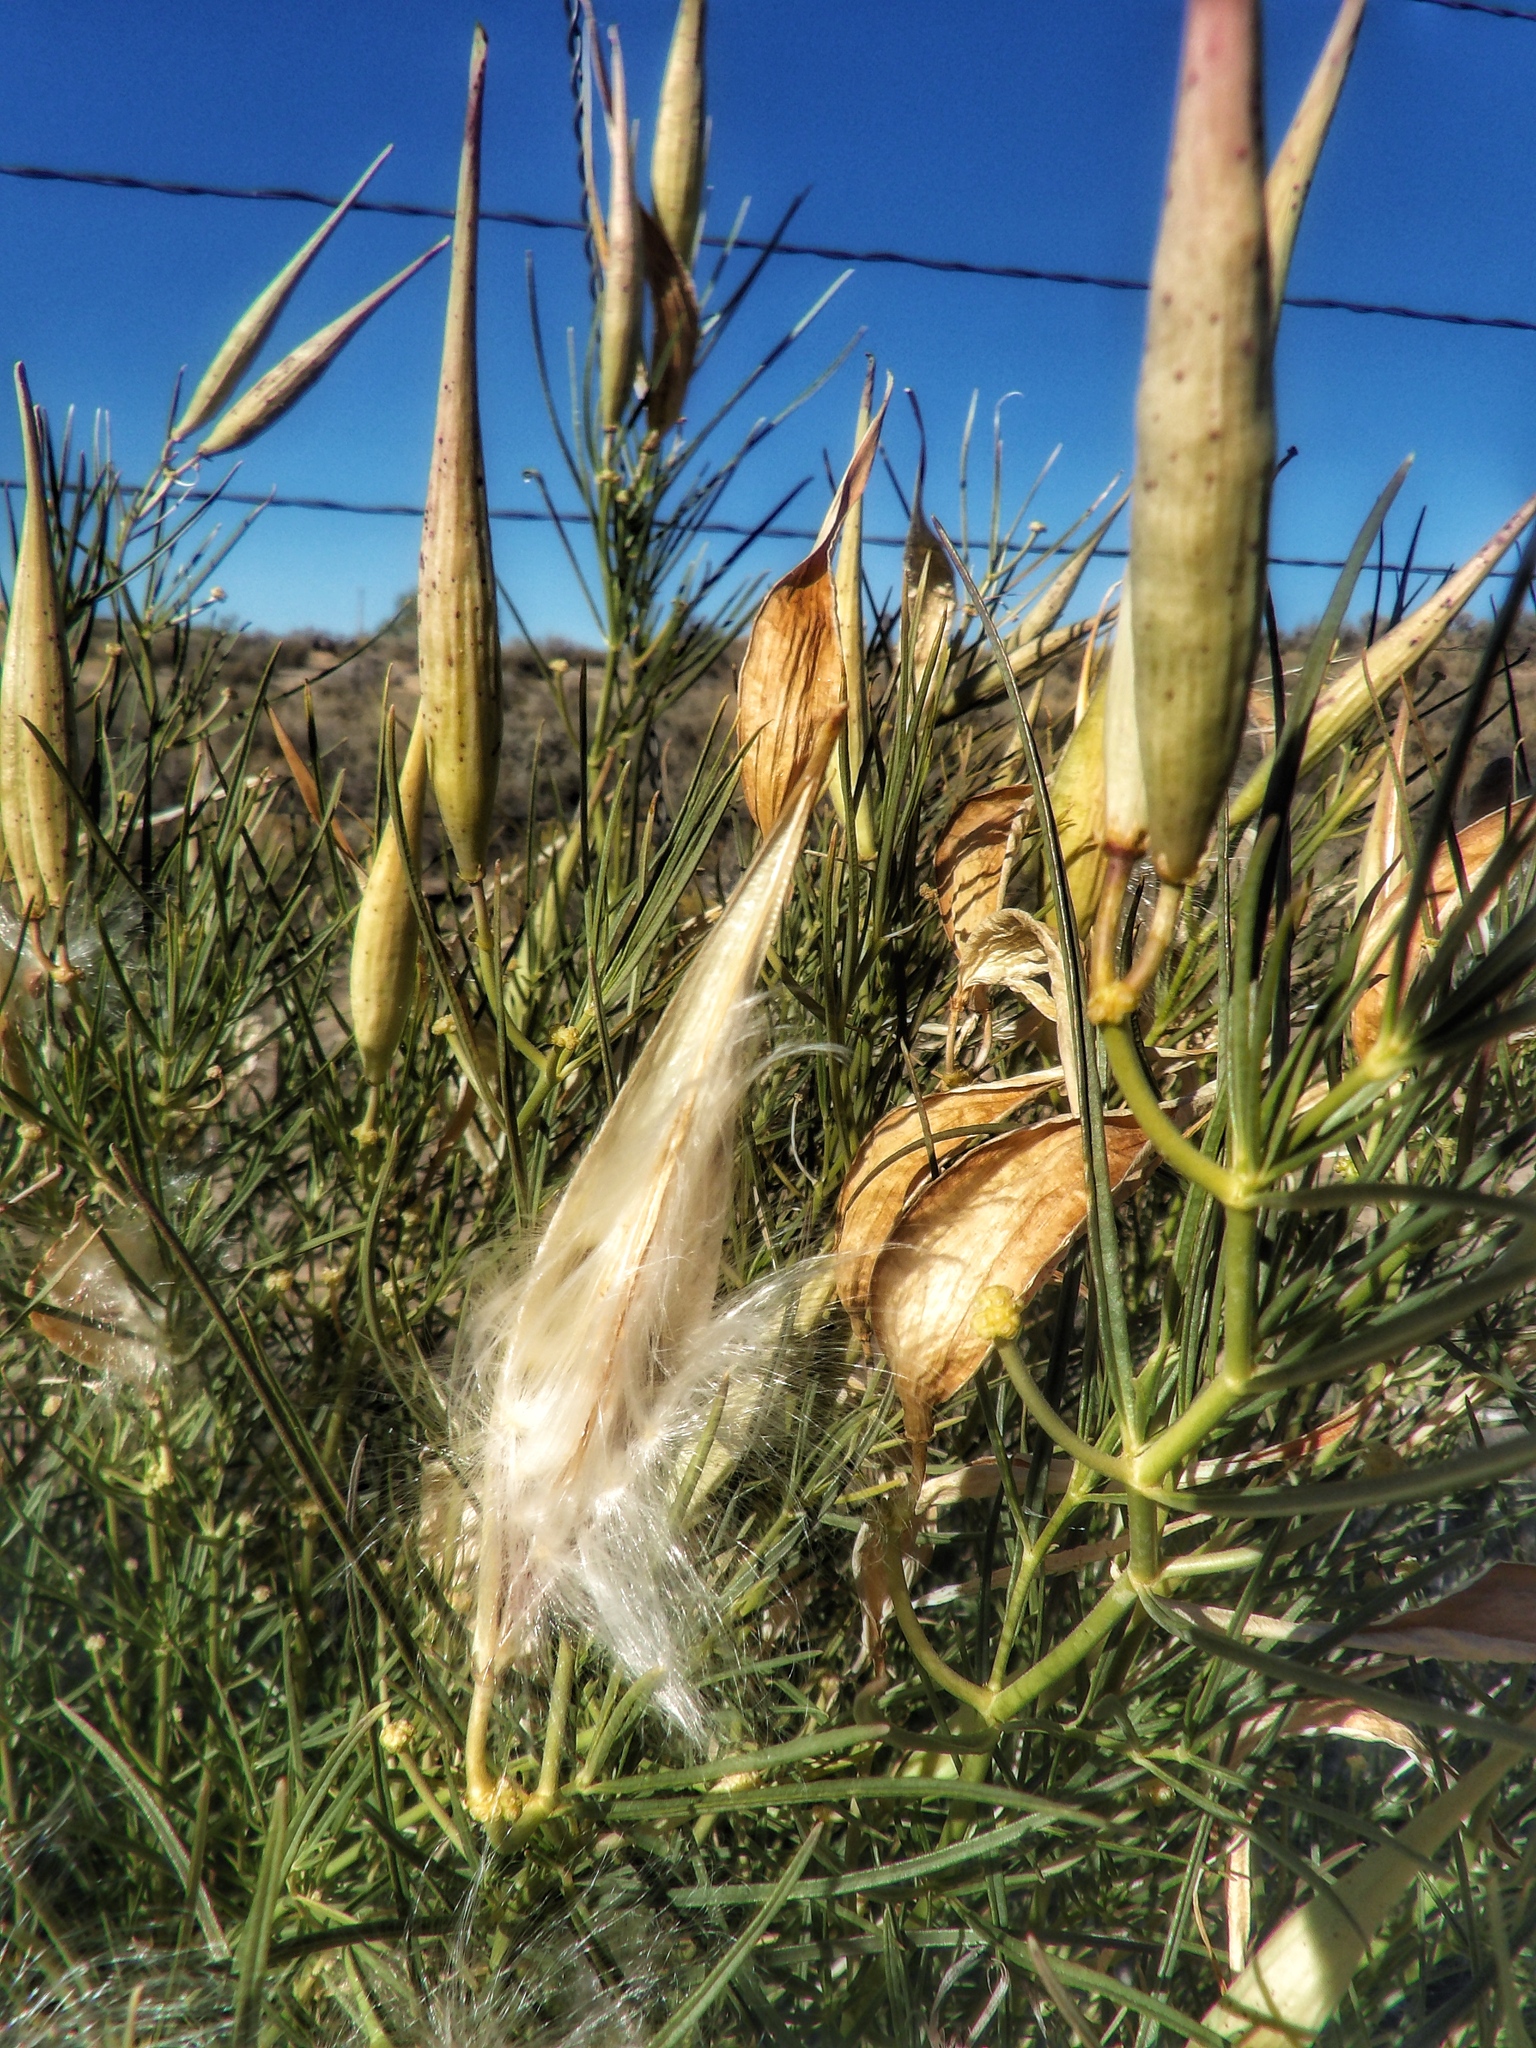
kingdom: Plantae
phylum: Tracheophyta
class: Magnoliopsida
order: Gentianales
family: Apocynaceae
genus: Asclepias
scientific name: Asclepias subverticillata
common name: Horsetail milkweed
